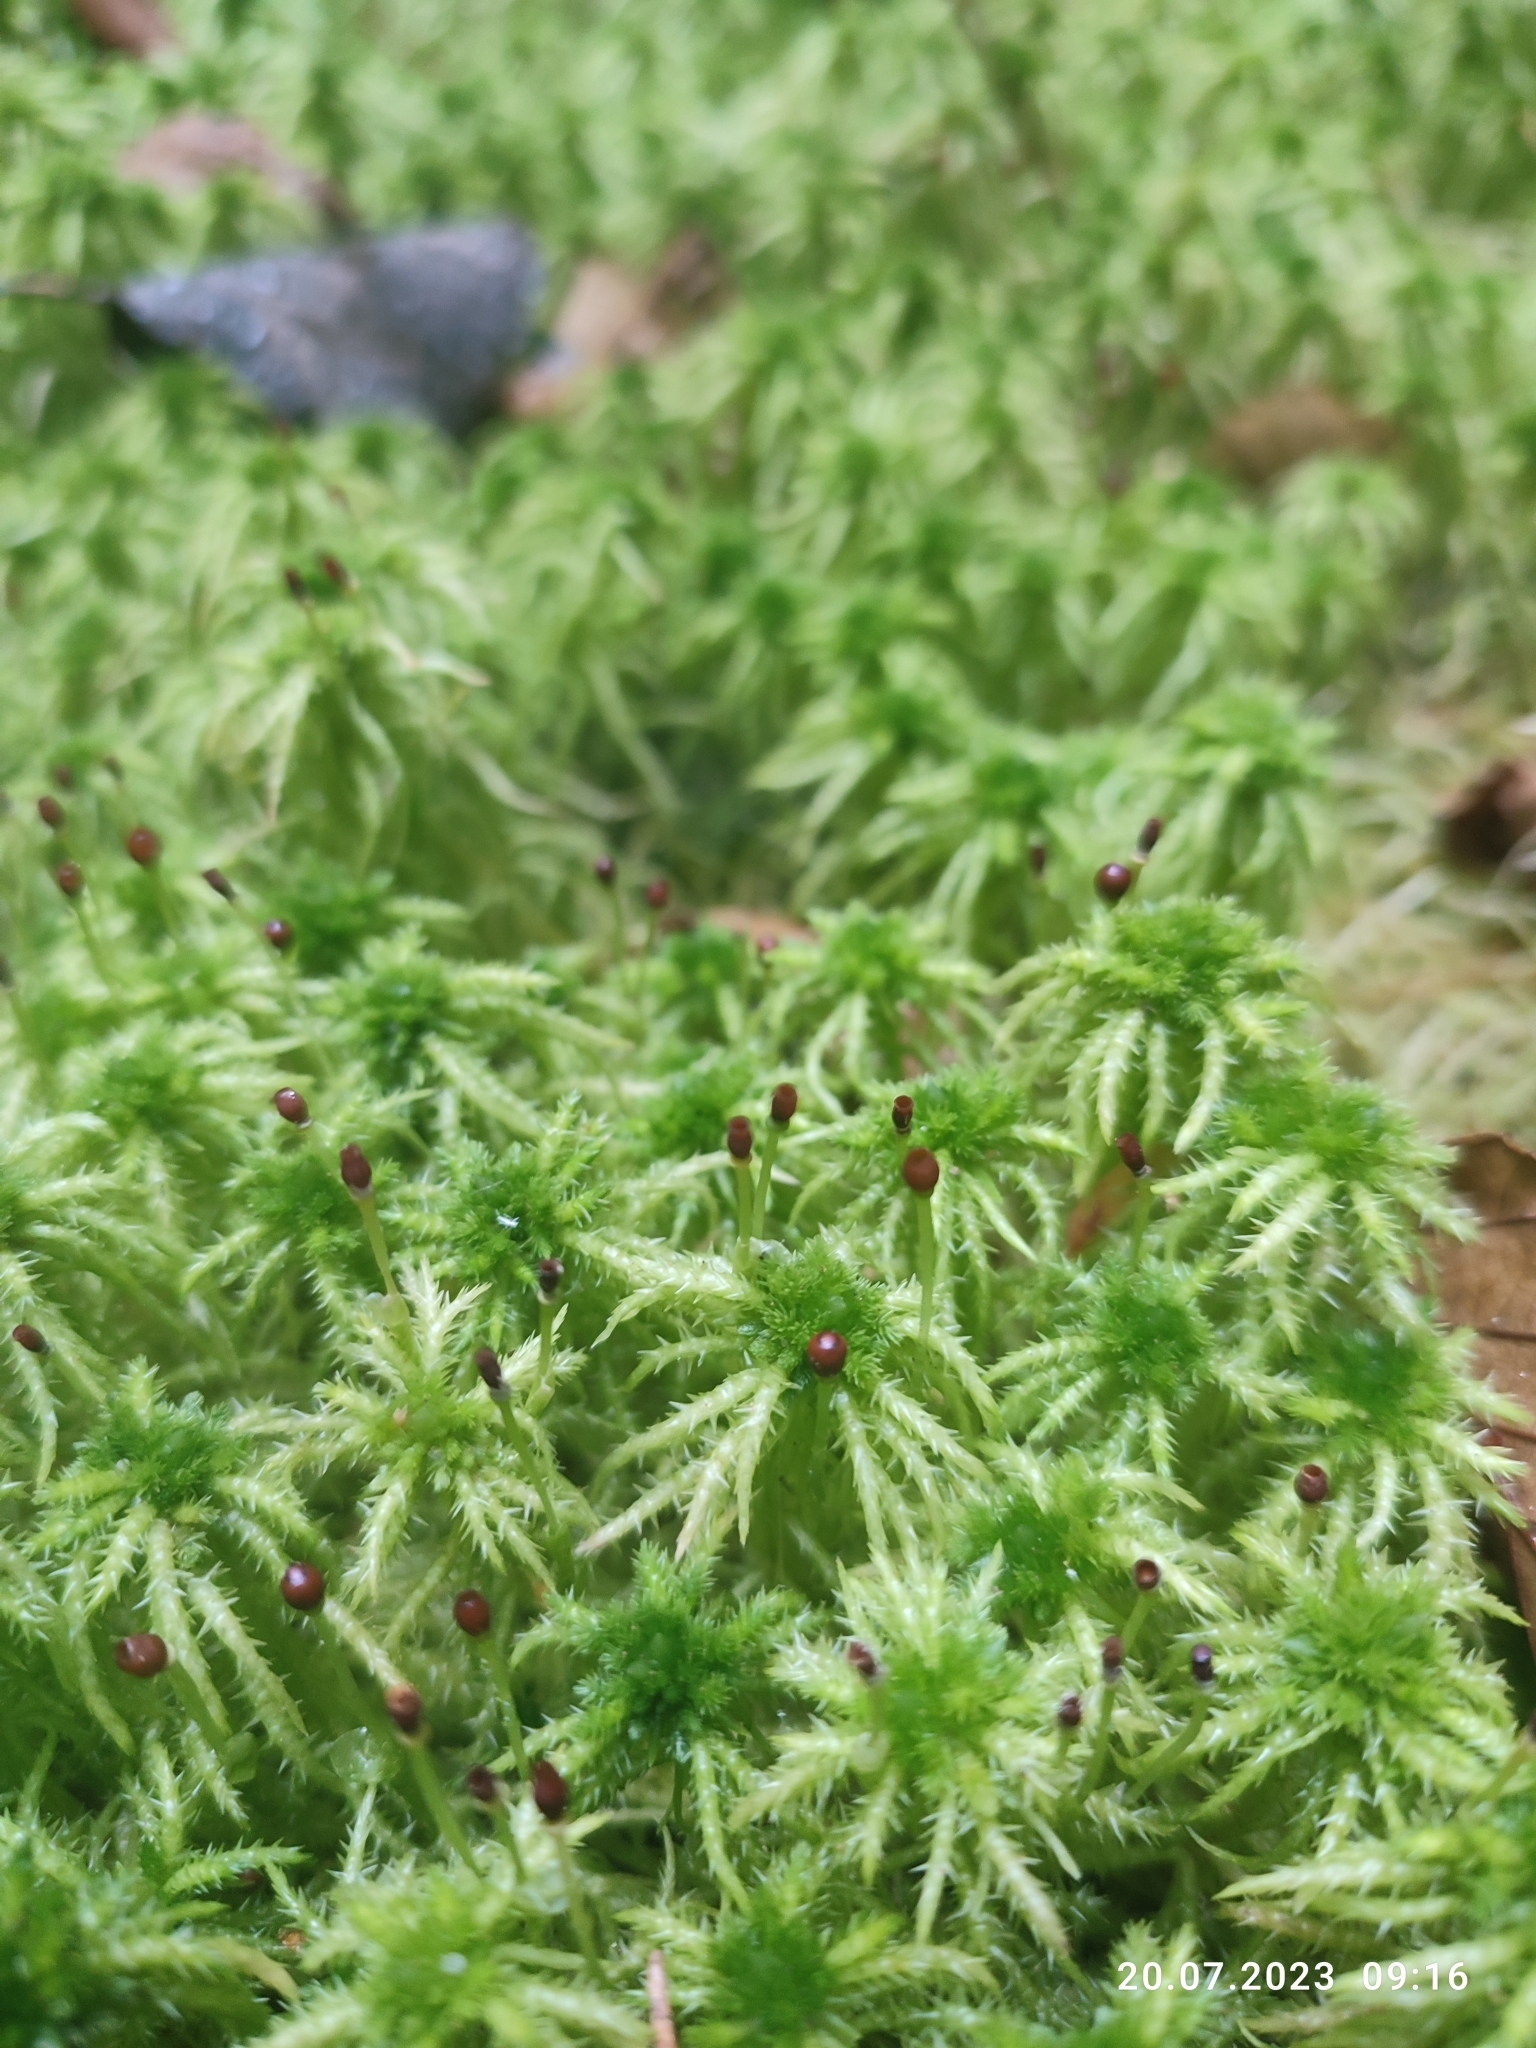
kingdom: Plantae
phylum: Bryophyta
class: Sphagnopsida
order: Sphagnales
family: Sphagnaceae
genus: Sphagnum
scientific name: Sphagnum squarrosum
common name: Shaggy peat moss
